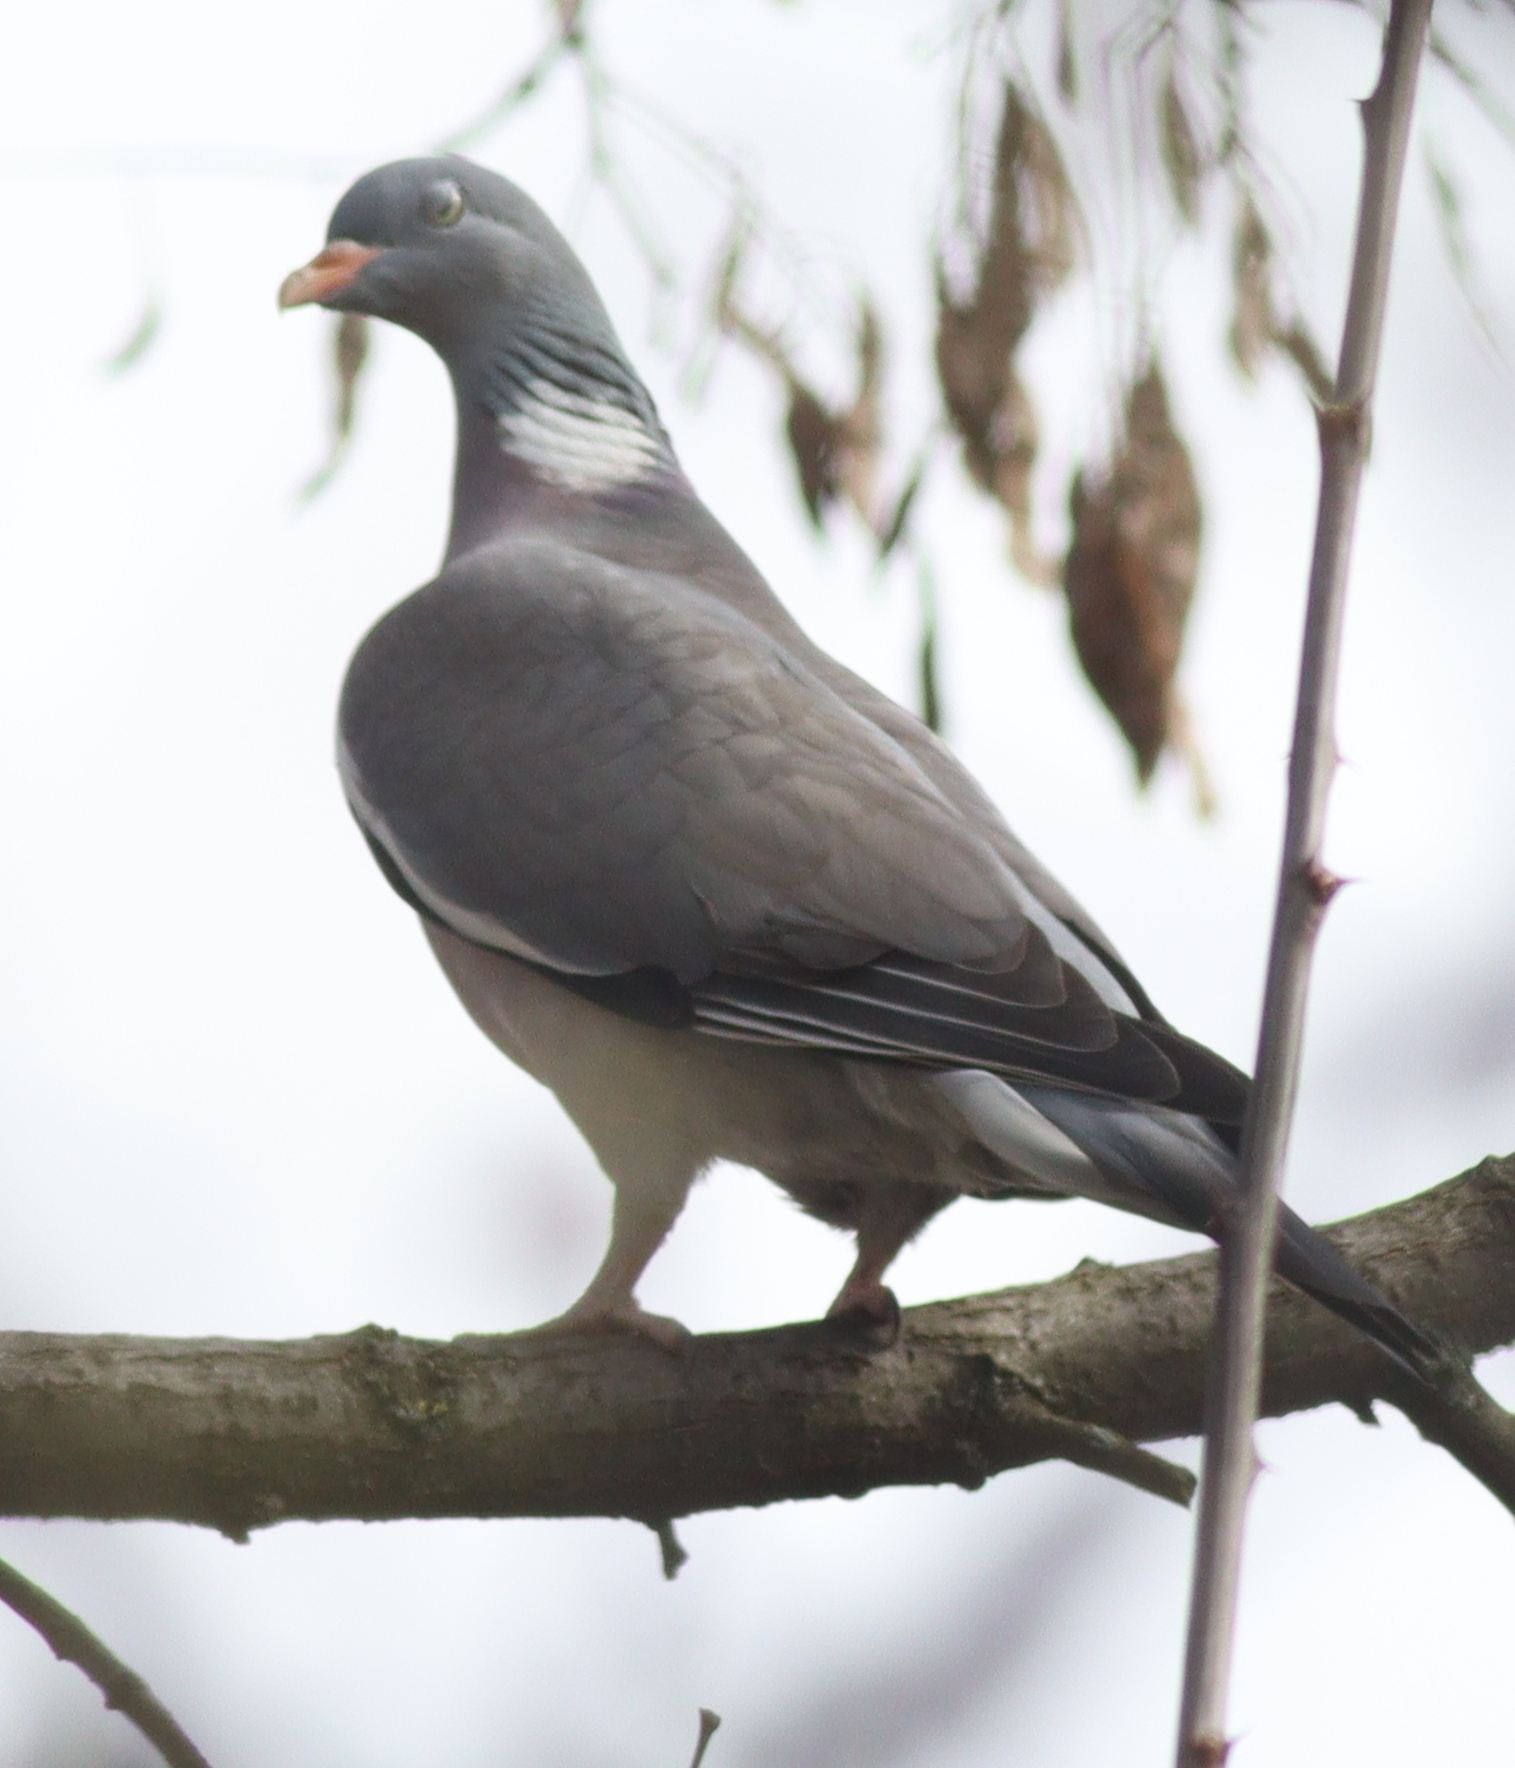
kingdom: Animalia
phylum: Chordata
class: Aves
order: Columbiformes
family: Columbidae
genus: Columba
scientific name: Columba palumbus
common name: Common wood pigeon
